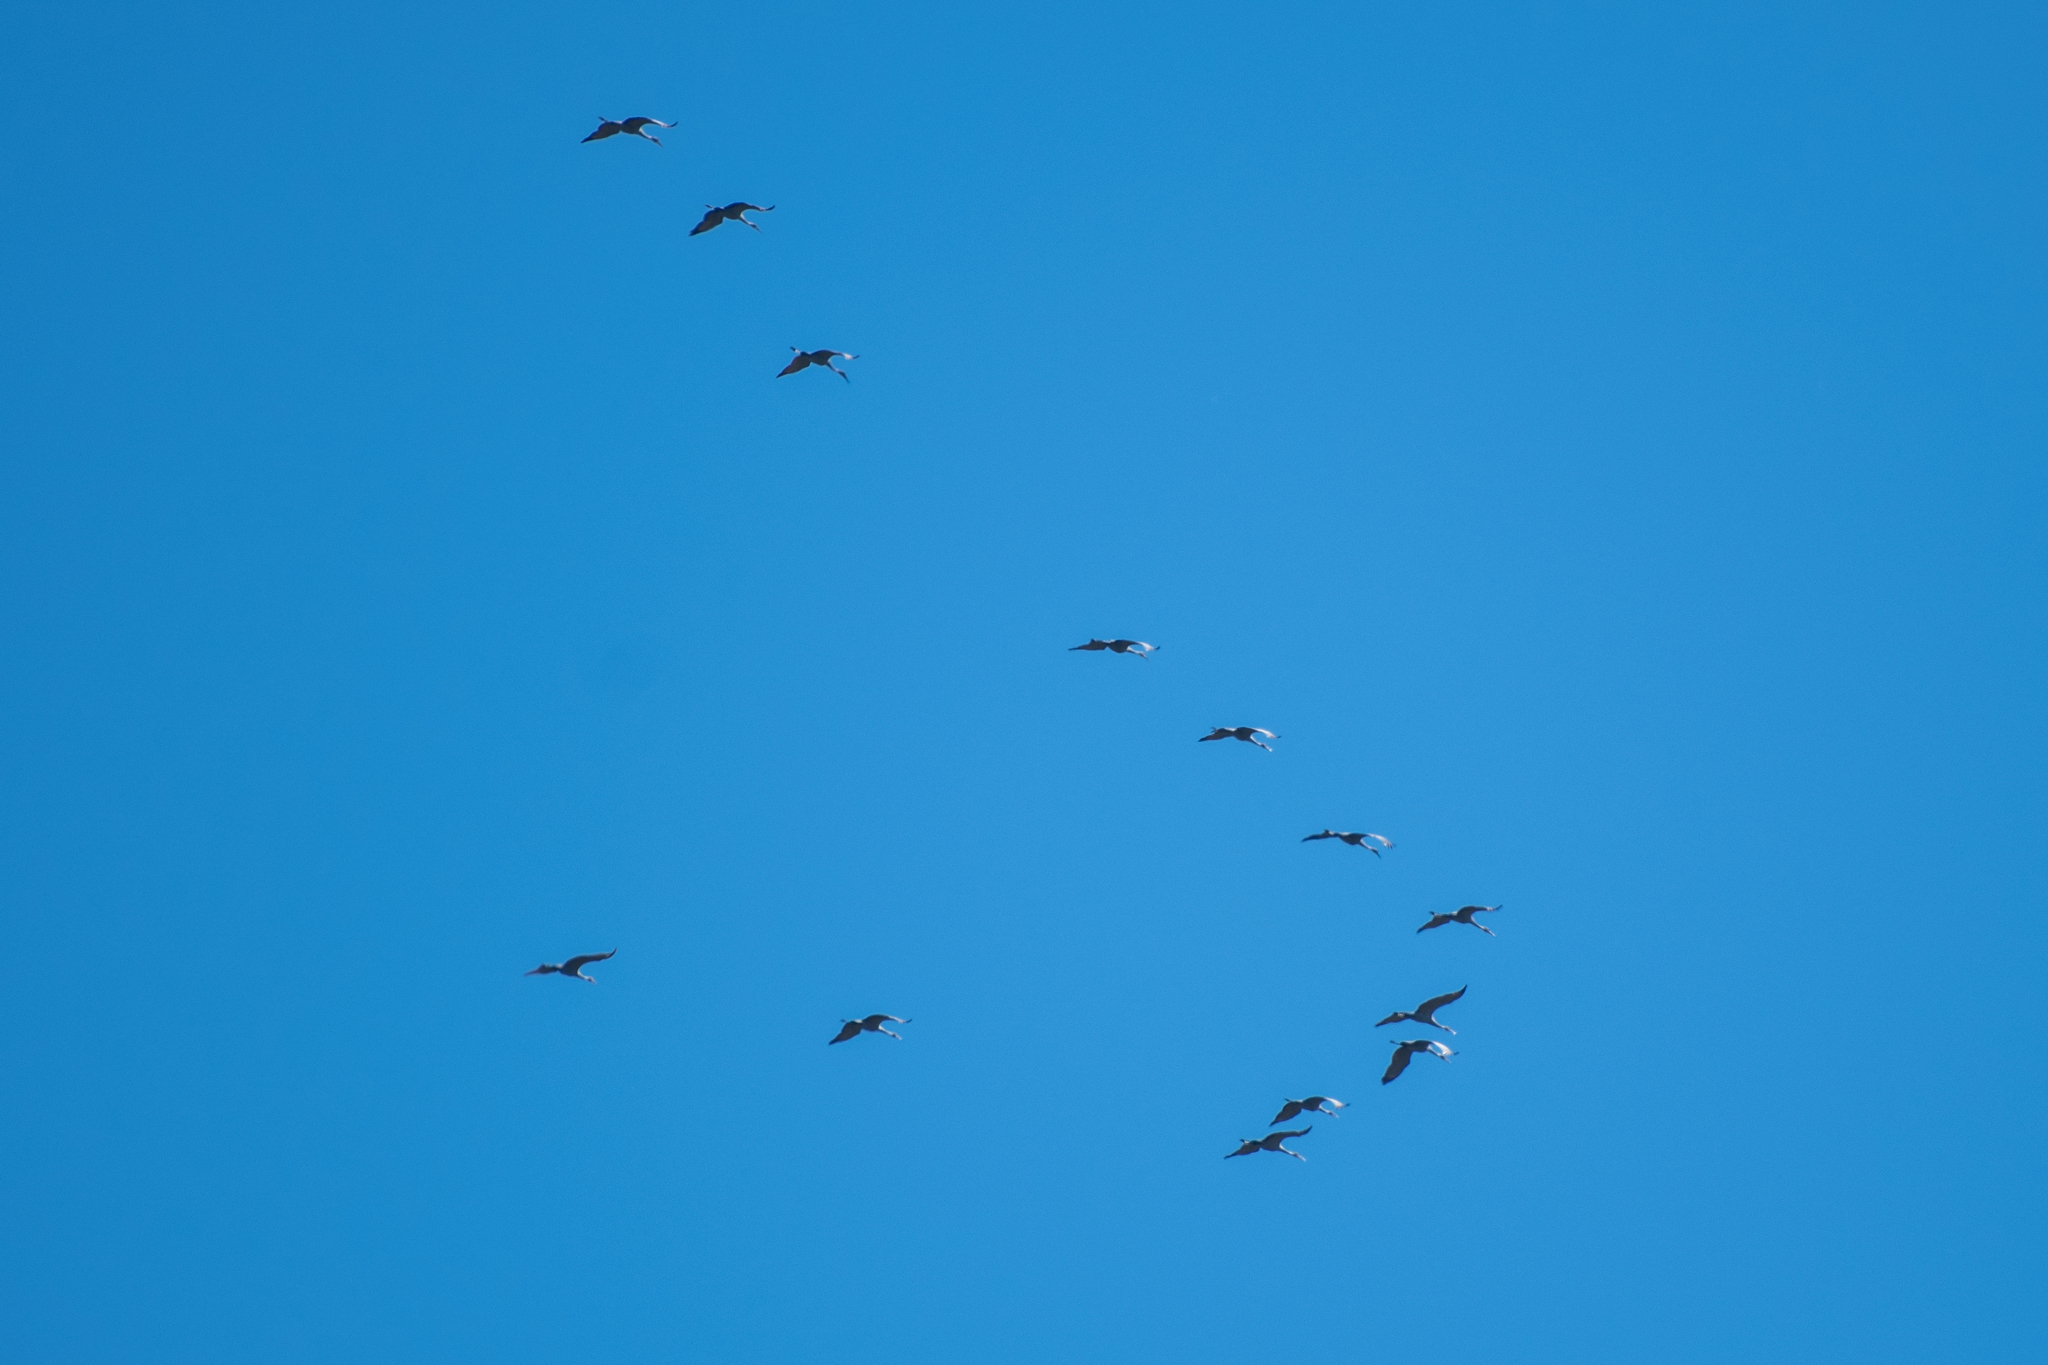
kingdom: Animalia
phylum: Chordata
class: Aves
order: Gruiformes
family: Gruidae
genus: Grus
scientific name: Grus canadensis
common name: Sandhill crane
